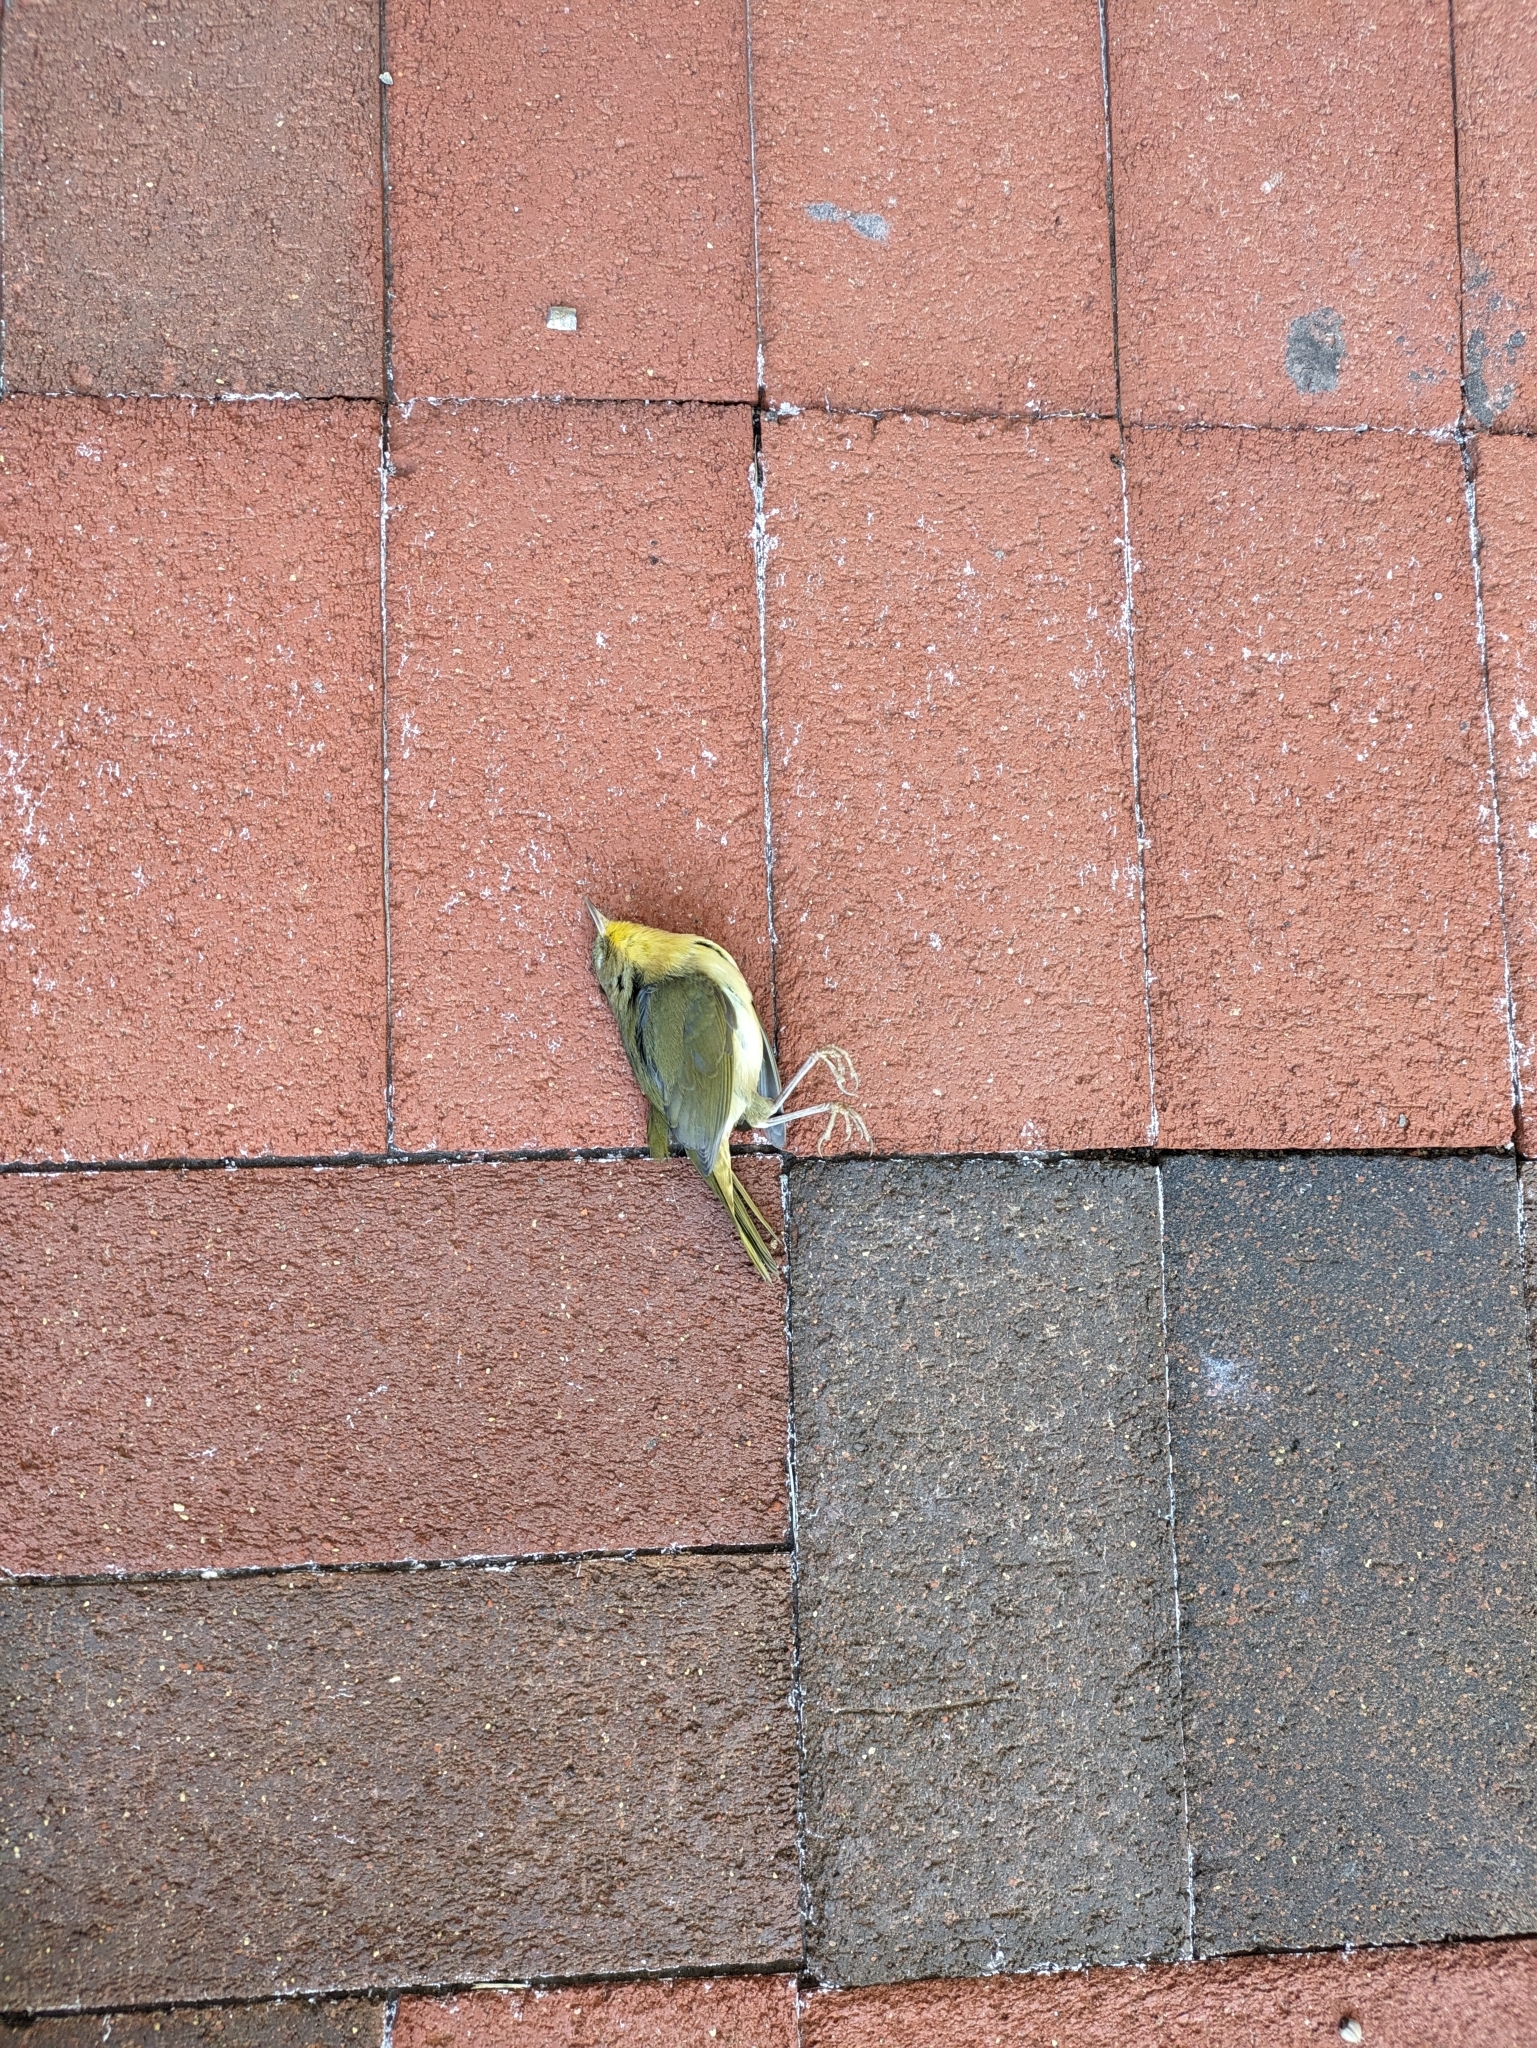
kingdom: Animalia
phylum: Chordata
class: Aves
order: Passeriformes
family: Parulidae
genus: Geothlypis
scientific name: Geothlypis trichas
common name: Common yellowthroat
